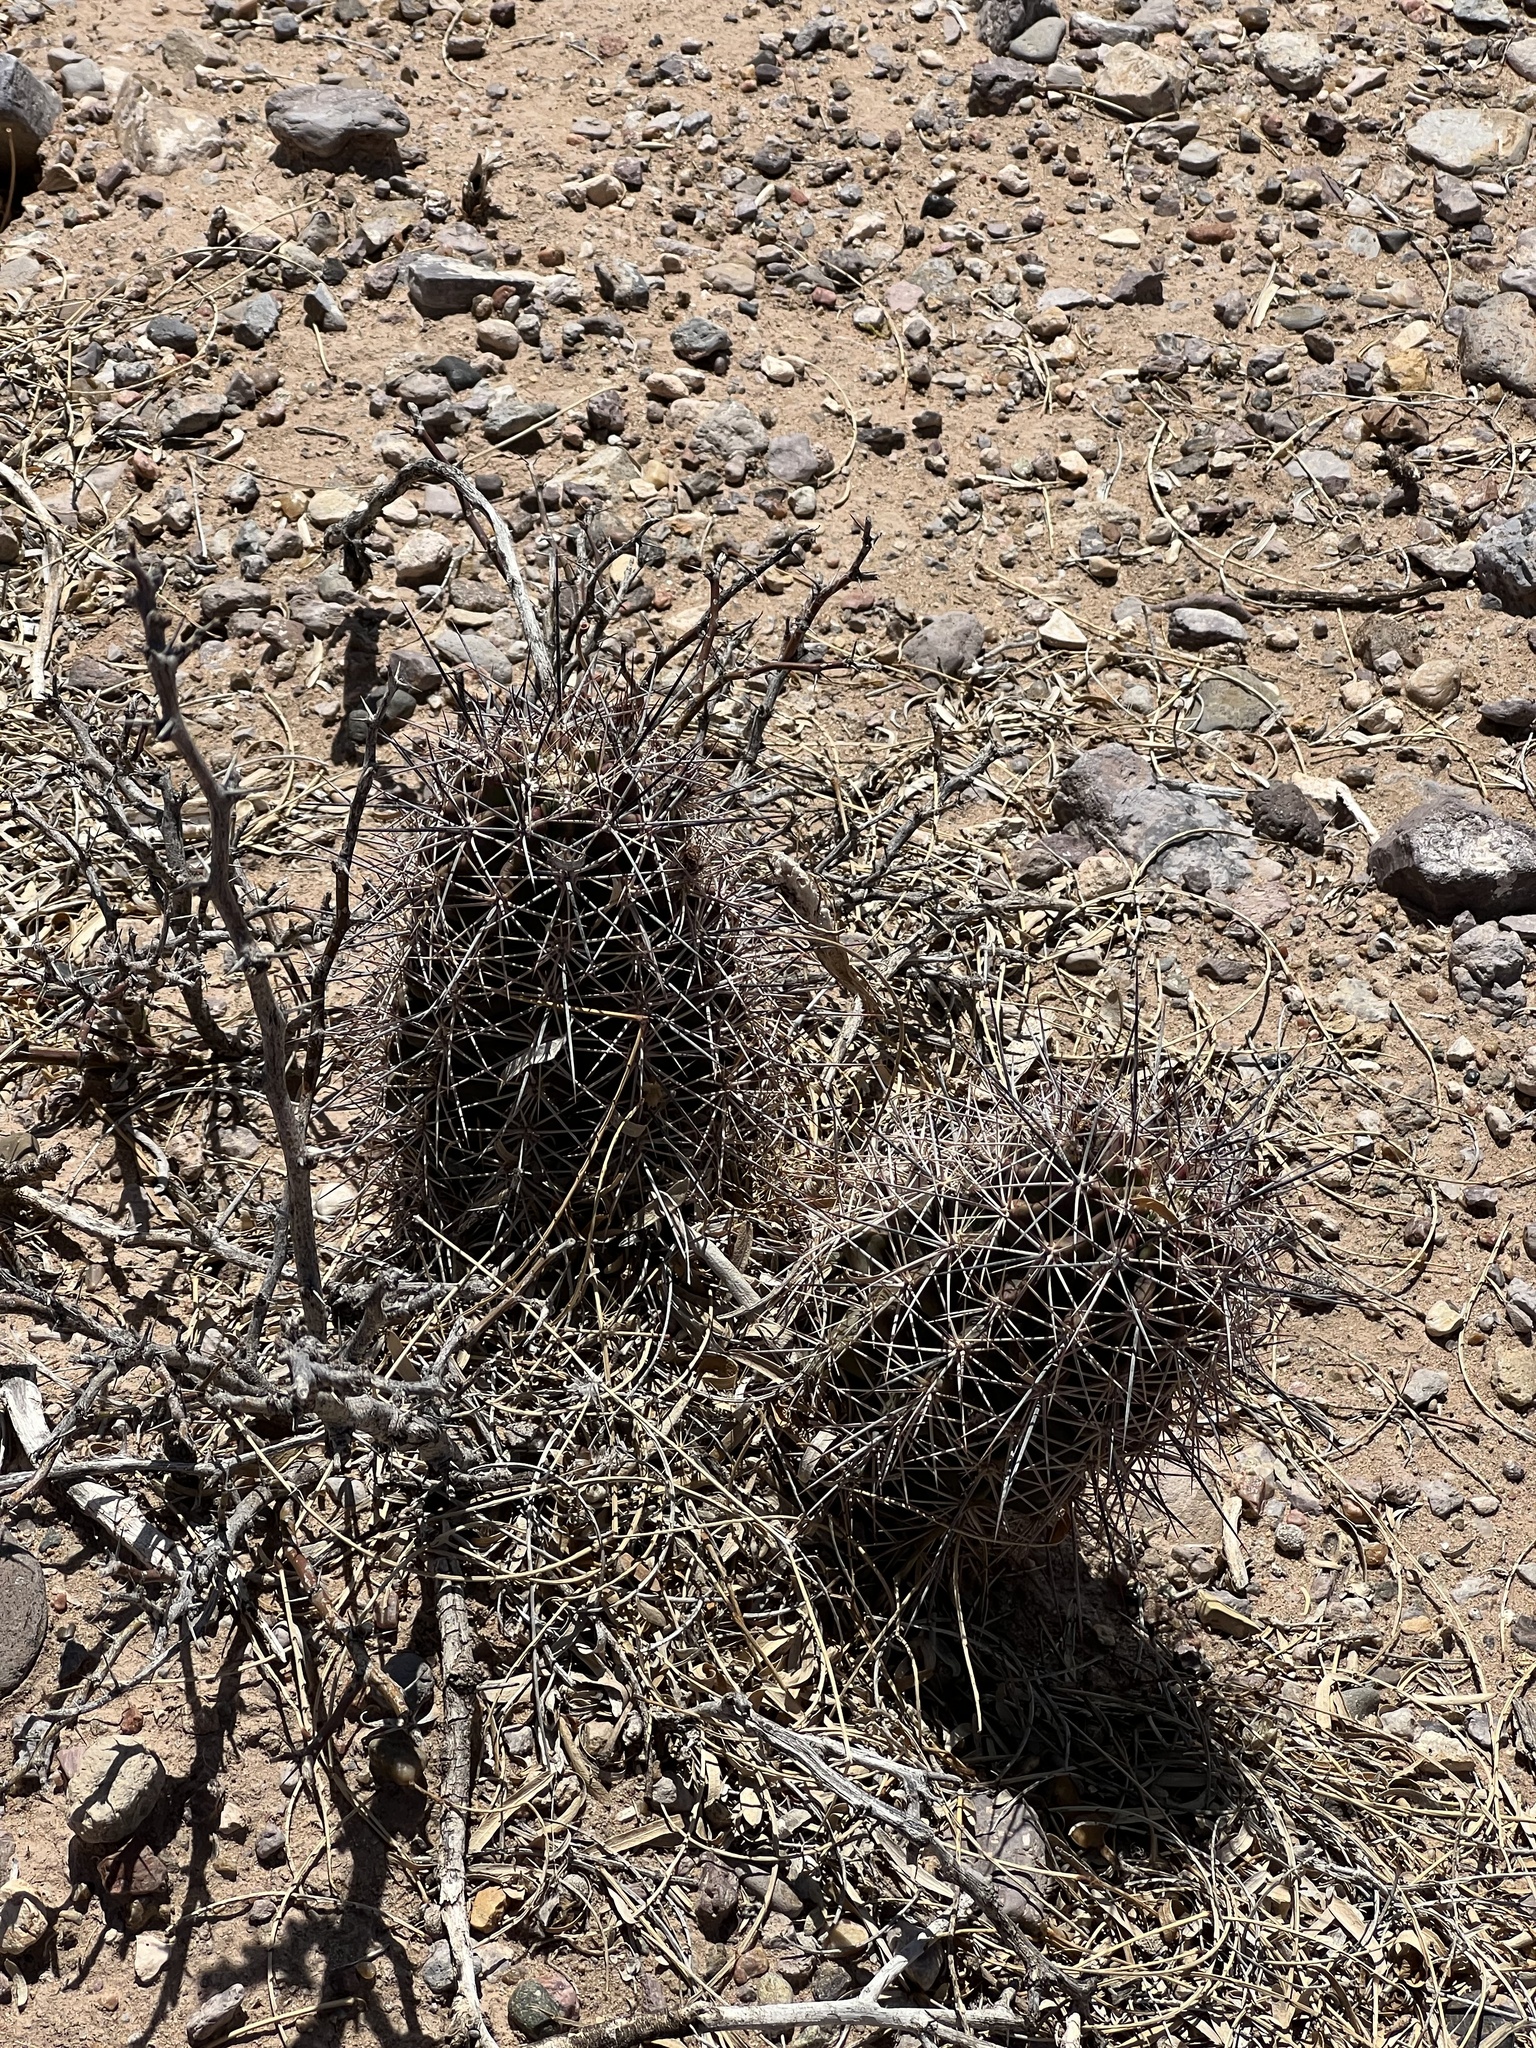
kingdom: Plantae
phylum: Tracheophyta
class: Magnoliopsida
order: Caryophyllales
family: Cactaceae
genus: Echinocereus
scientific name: Echinocereus coccineus
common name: Scarlet hedgehog cactus
